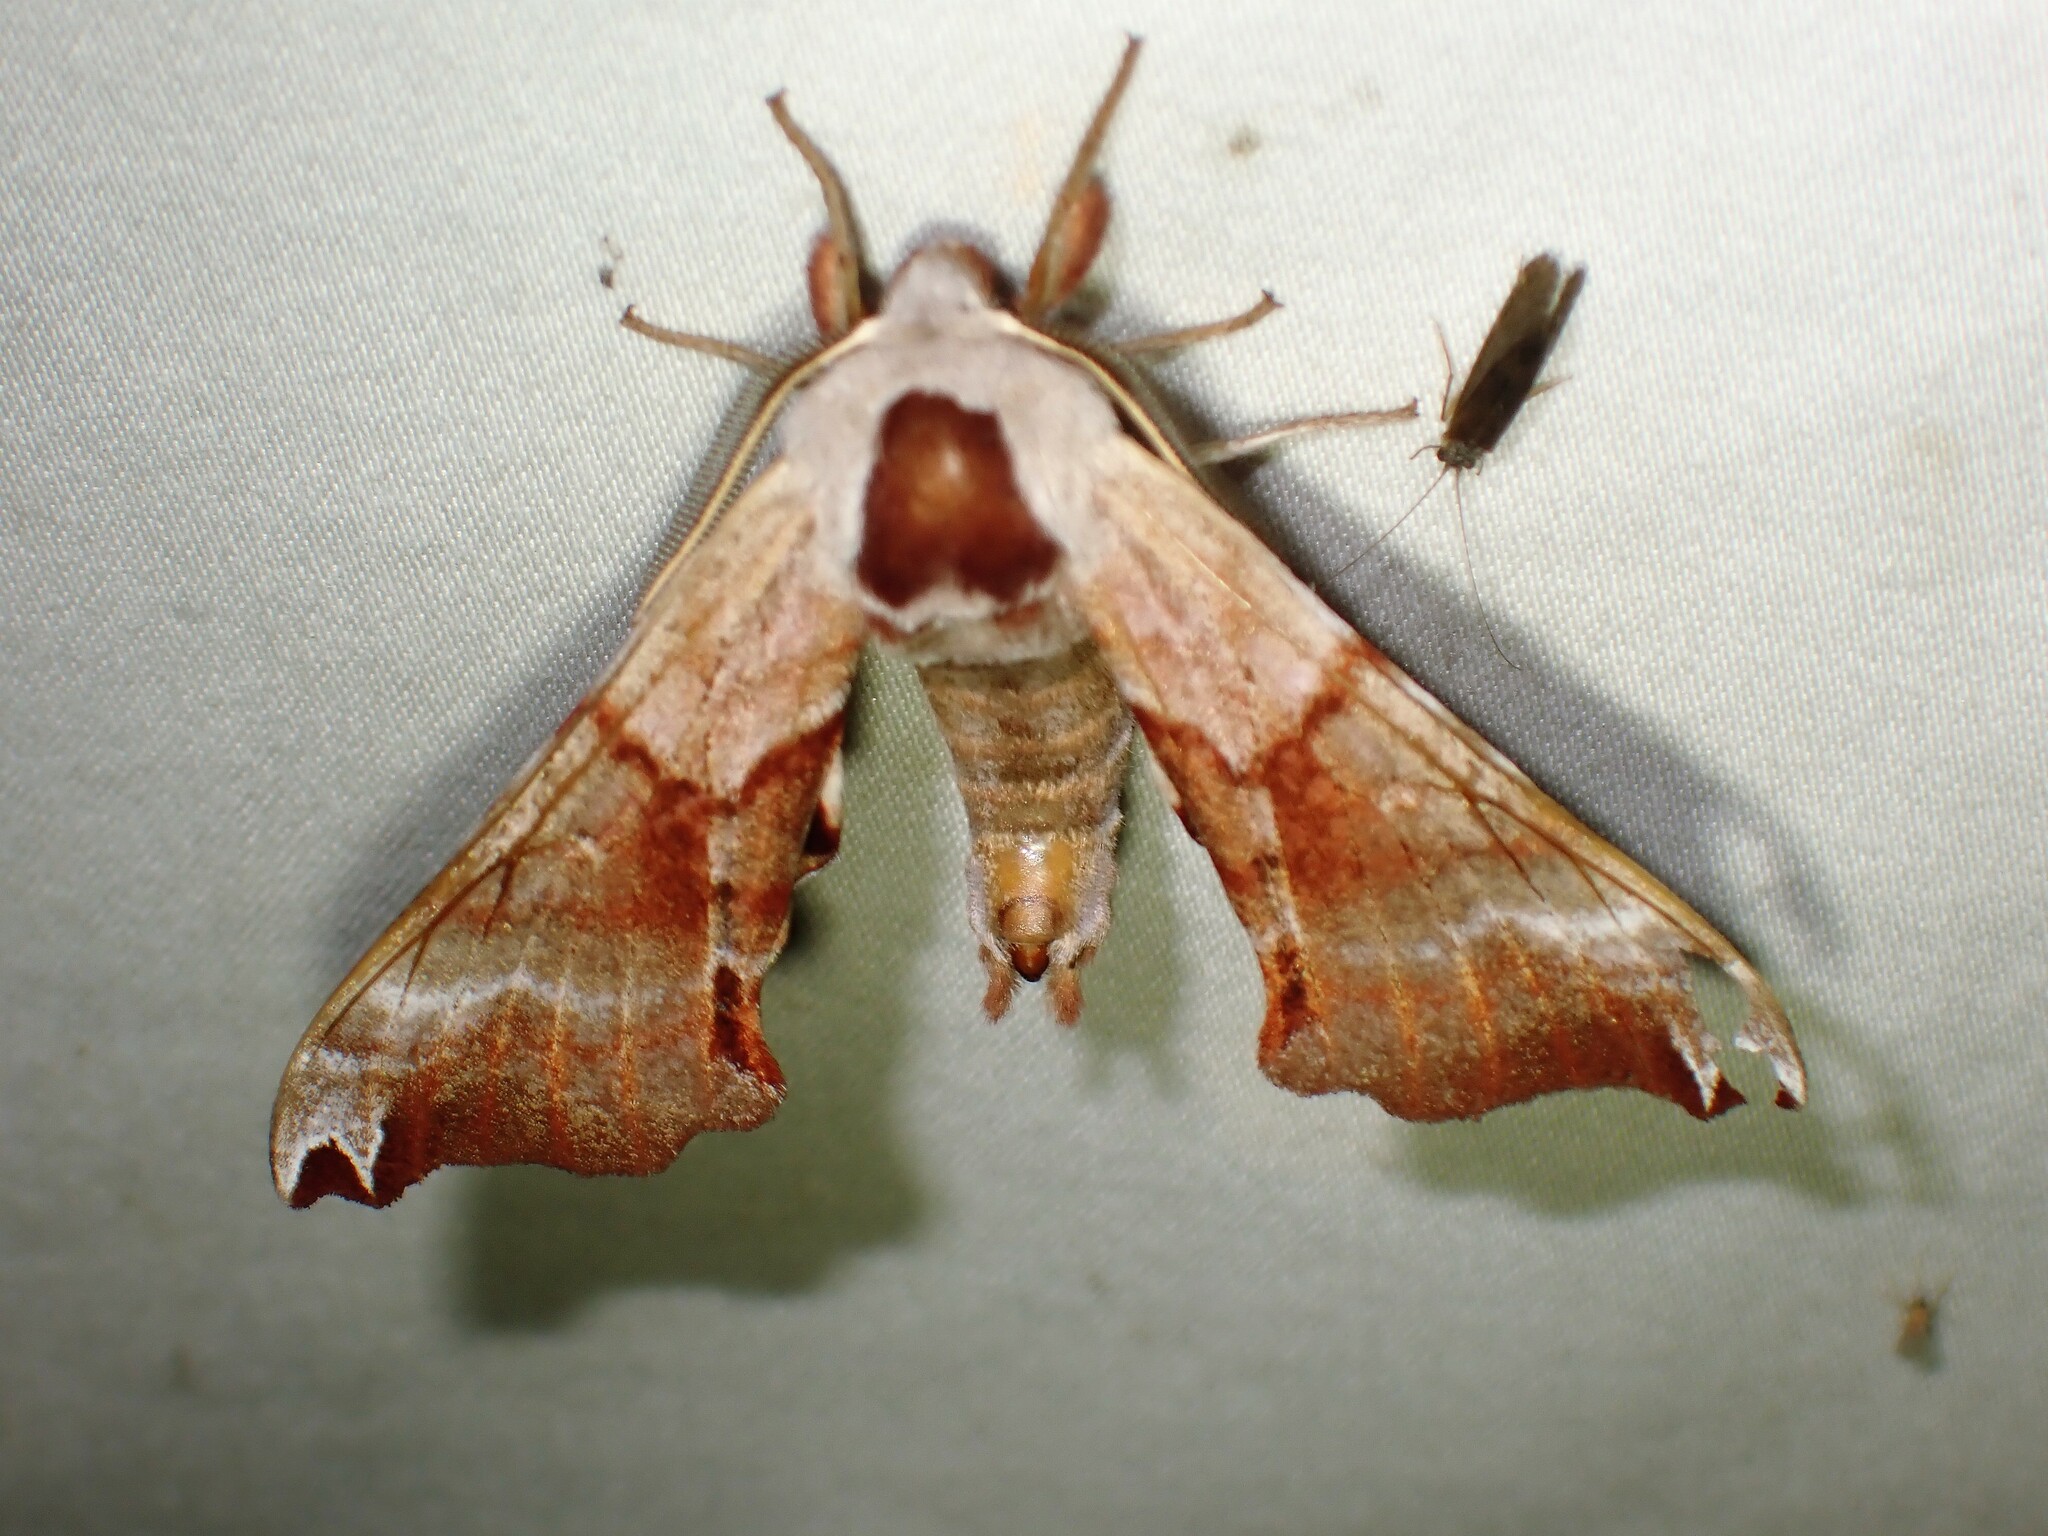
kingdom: Animalia
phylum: Arthropoda
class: Insecta
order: Lepidoptera
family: Sphingidae
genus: Smerinthus
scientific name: Smerinthus jamaicensis
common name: Twin spotted sphinx
